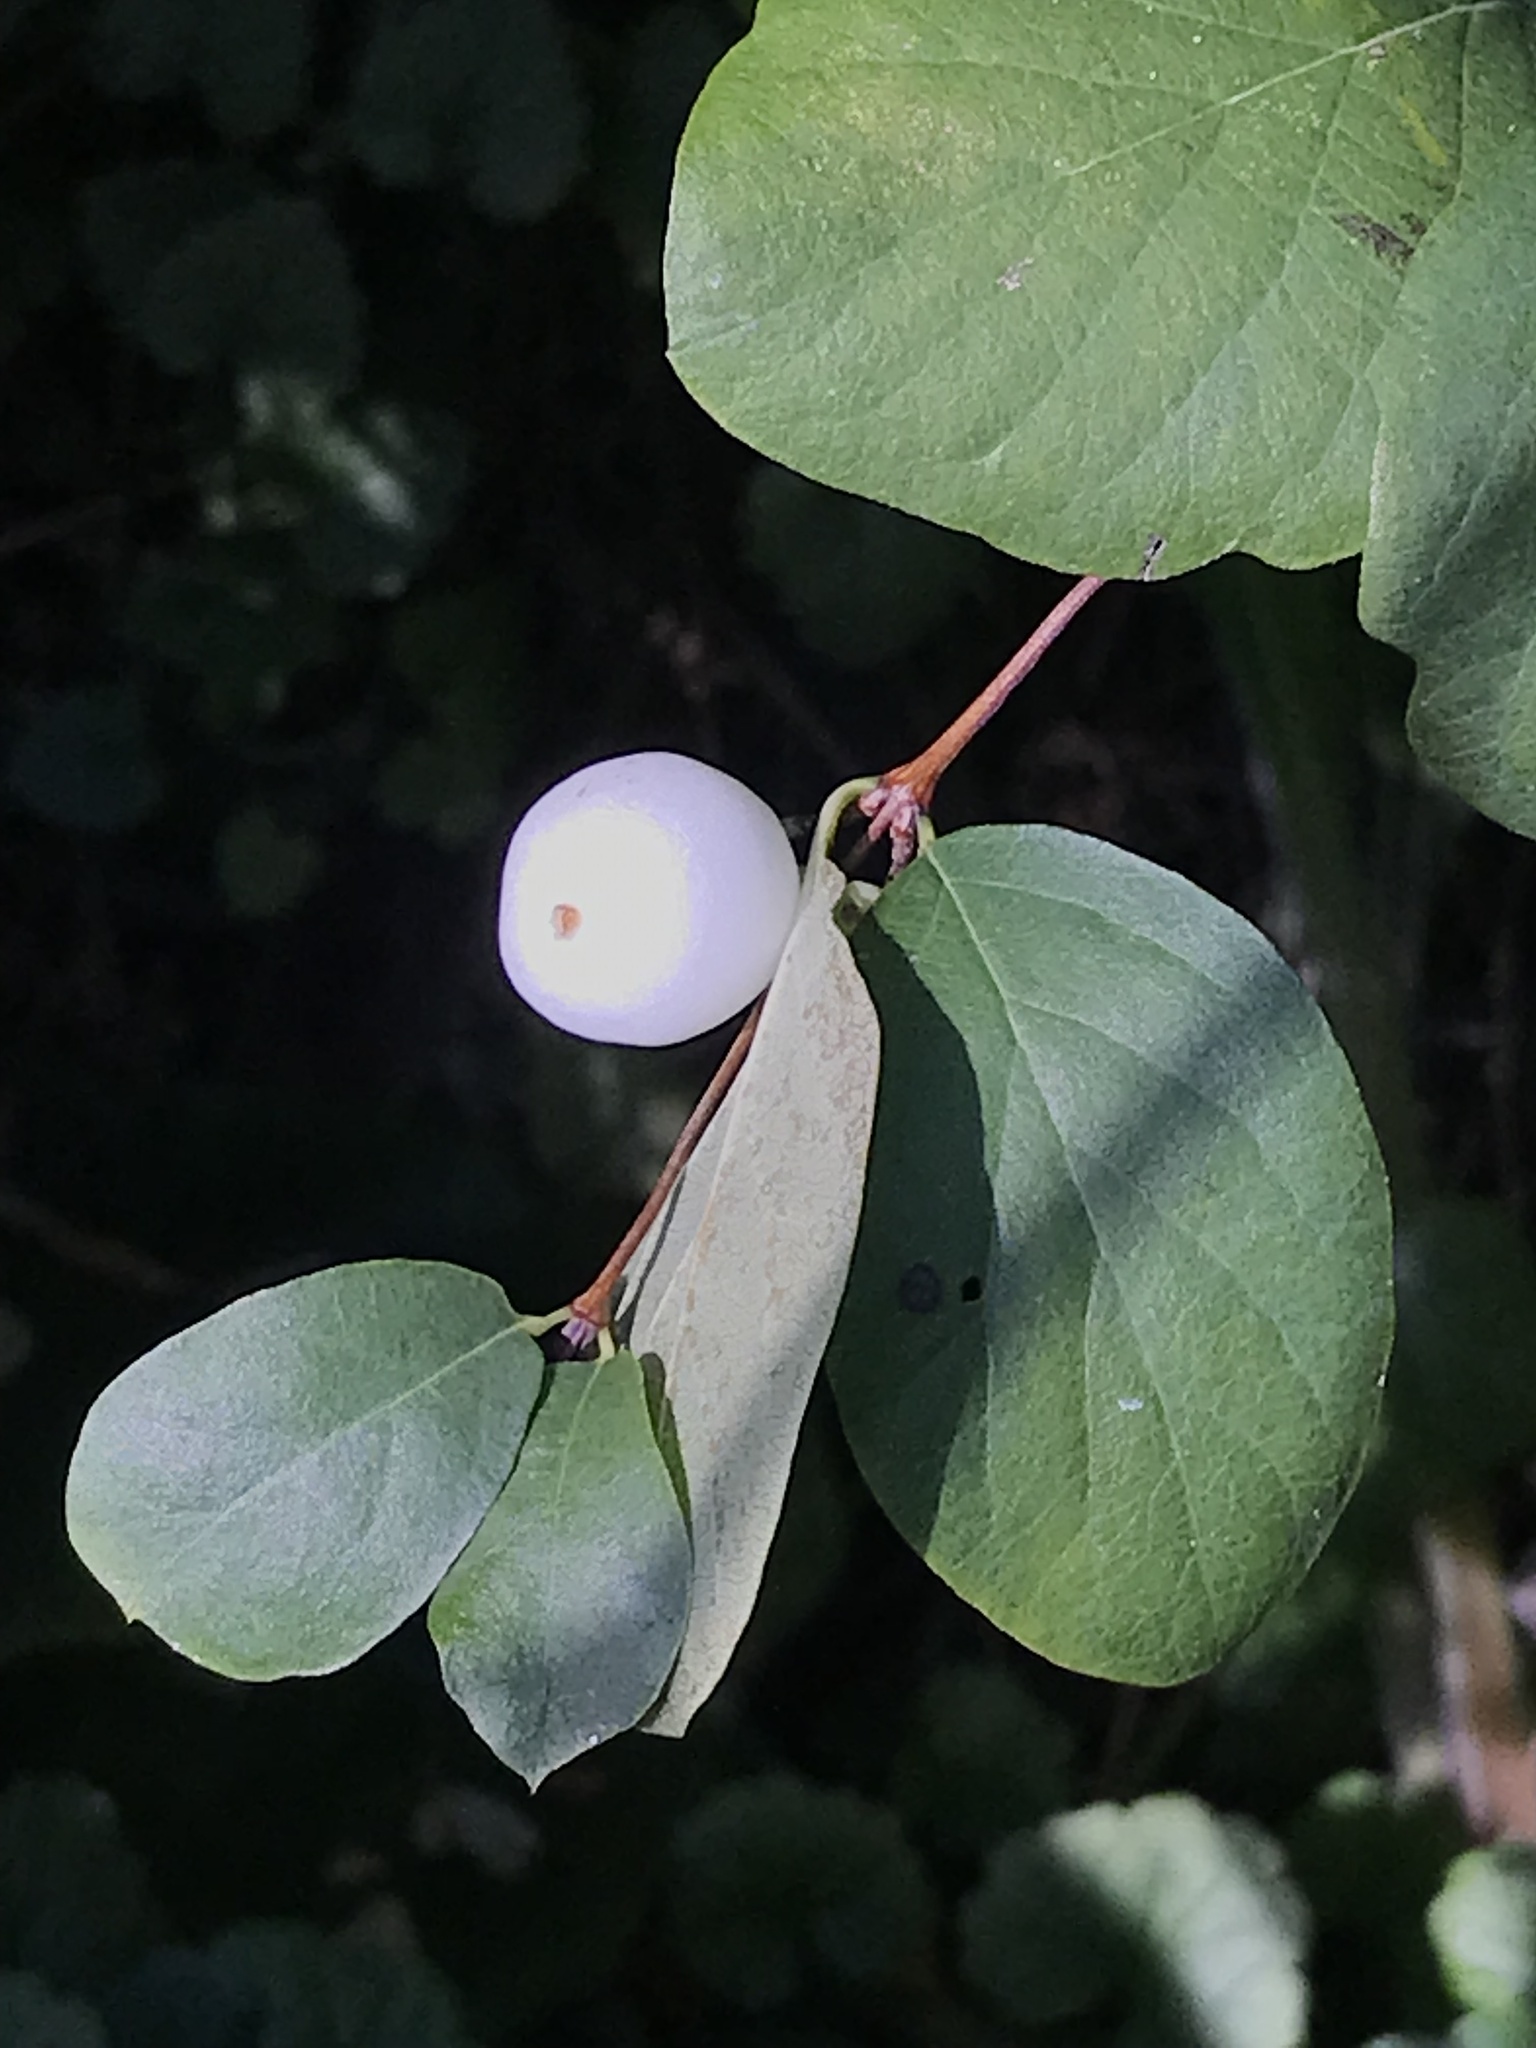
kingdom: Plantae
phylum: Tracheophyta
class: Magnoliopsida
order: Dipsacales
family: Caprifoliaceae
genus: Symphoricarpos
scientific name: Symphoricarpos albus
